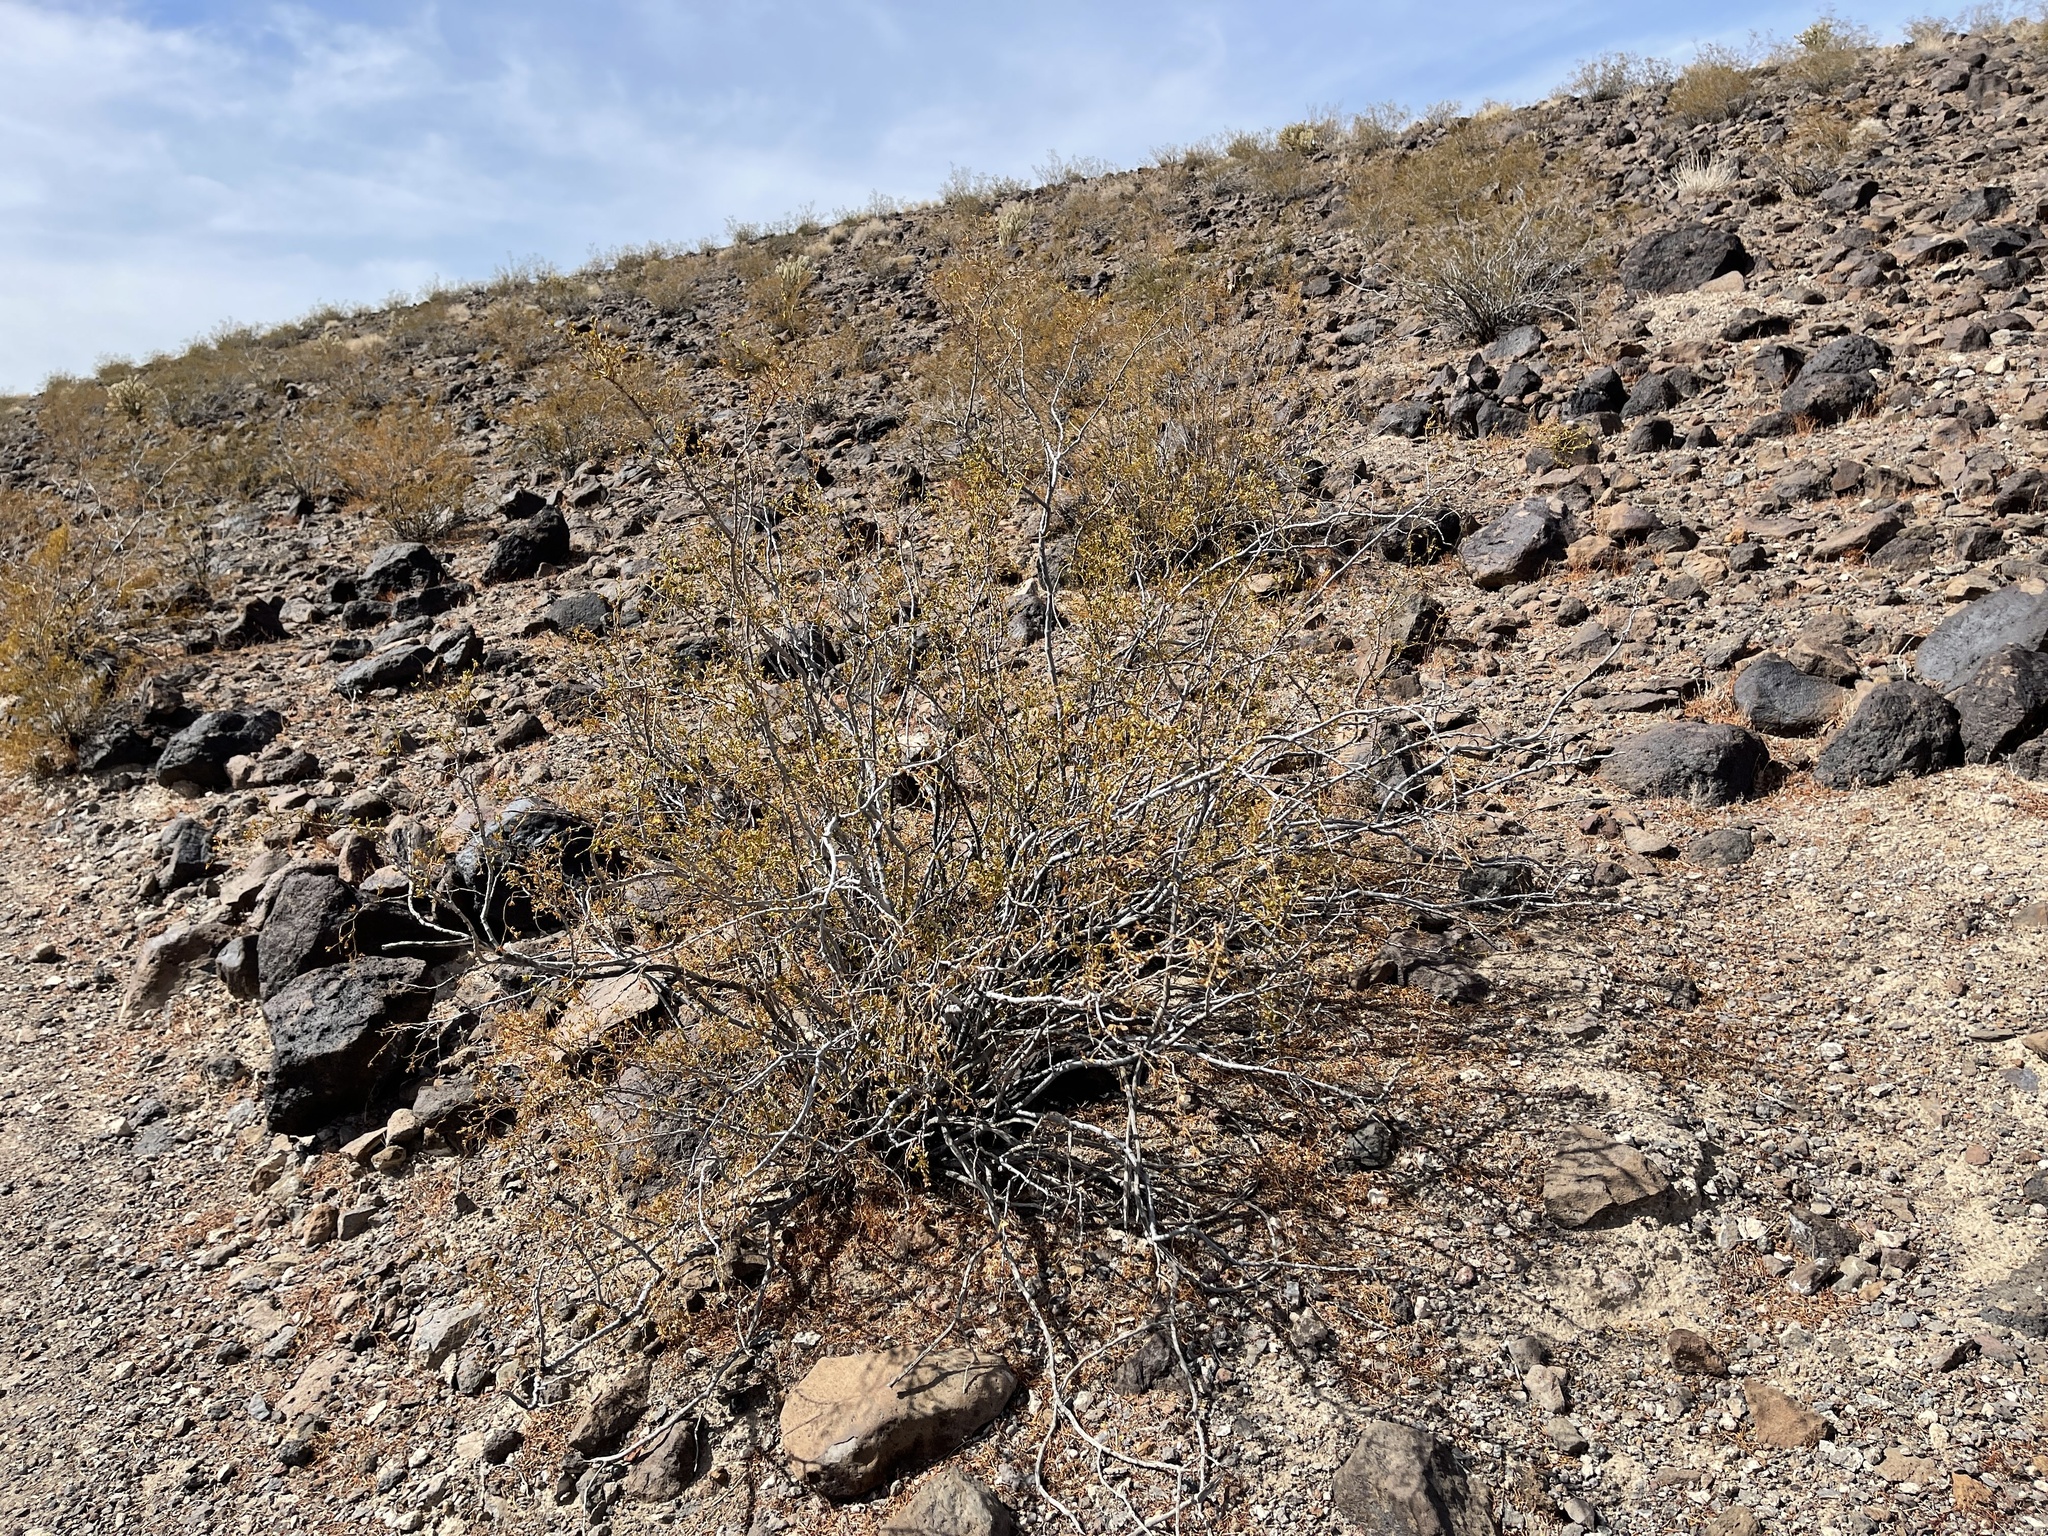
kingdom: Plantae
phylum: Tracheophyta
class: Magnoliopsida
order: Zygophyllales
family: Zygophyllaceae
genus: Larrea
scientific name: Larrea tridentata
